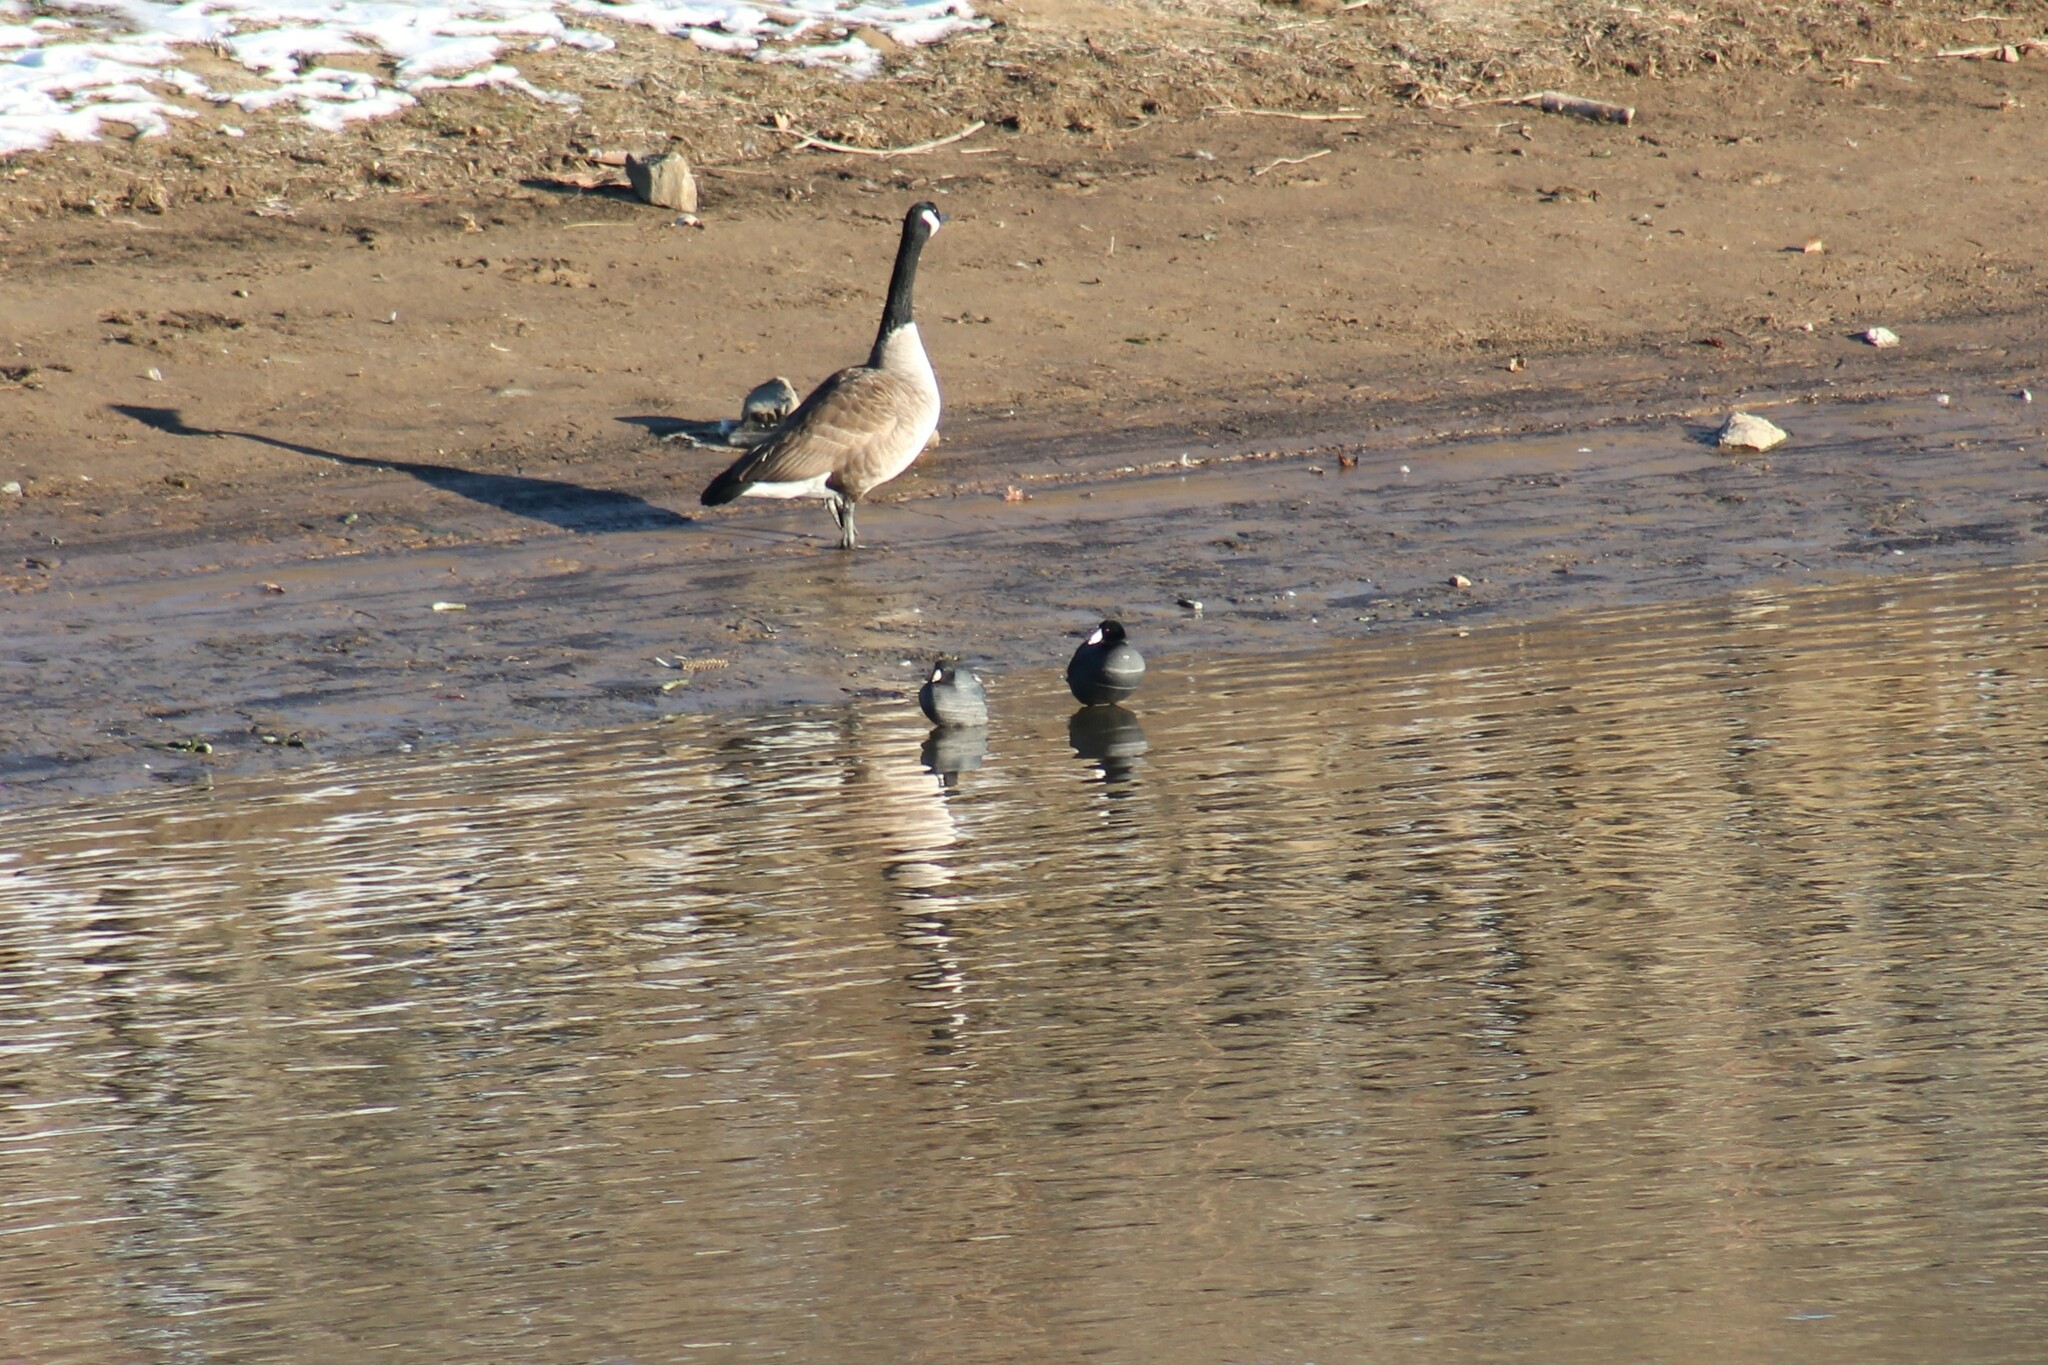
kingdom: Animalia
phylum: Chordata
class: Aves
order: Gruiformes
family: Rallidae
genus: Fulica
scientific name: Fulica americana
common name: American coot
